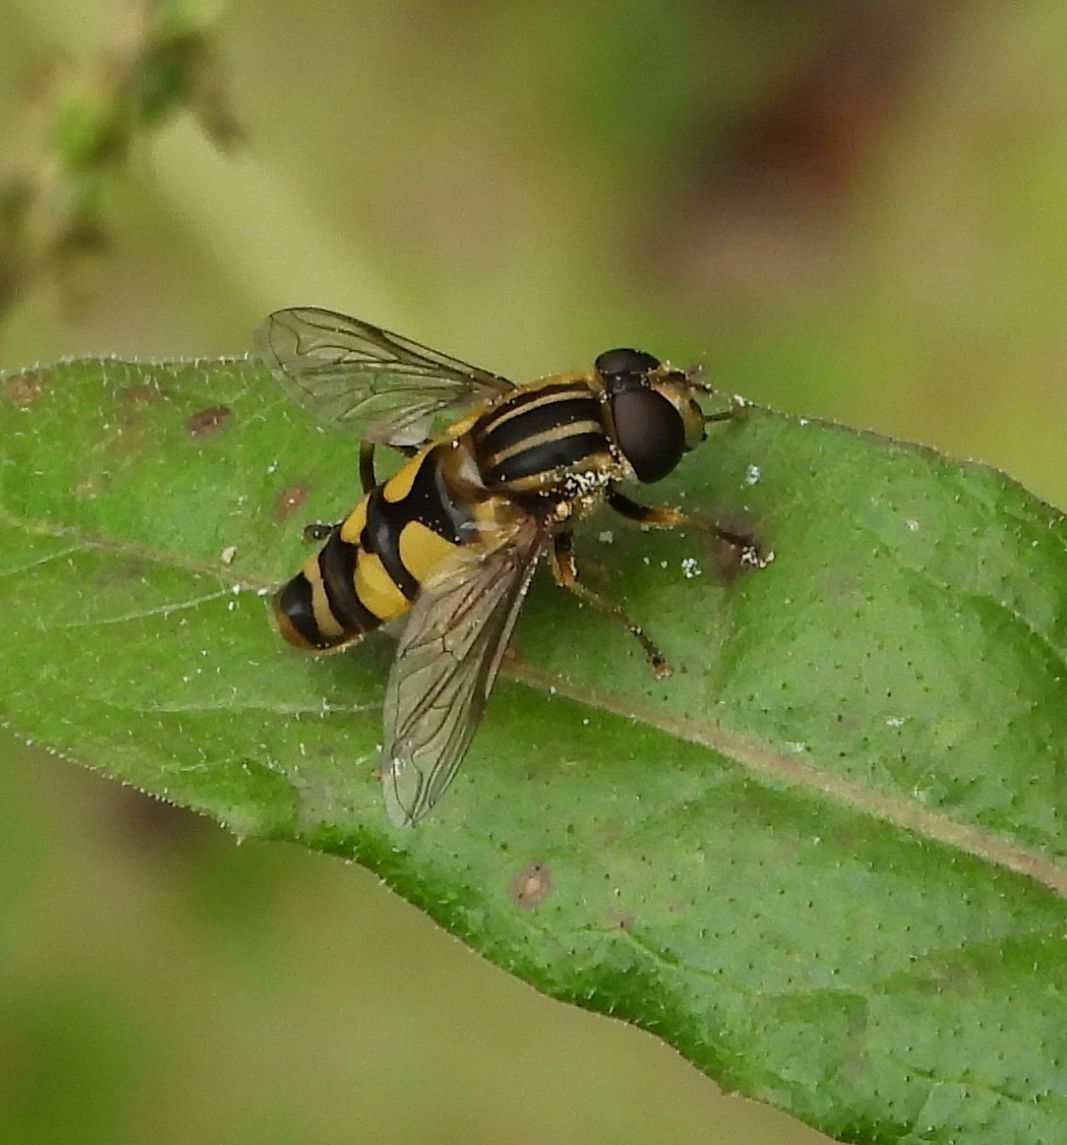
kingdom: Animalia
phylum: Arthropoda
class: Insecta
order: Diptera
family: Syrphidae
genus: Helophilus
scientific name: Helophilus fasciatus
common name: Narrow-headed marsh fly
